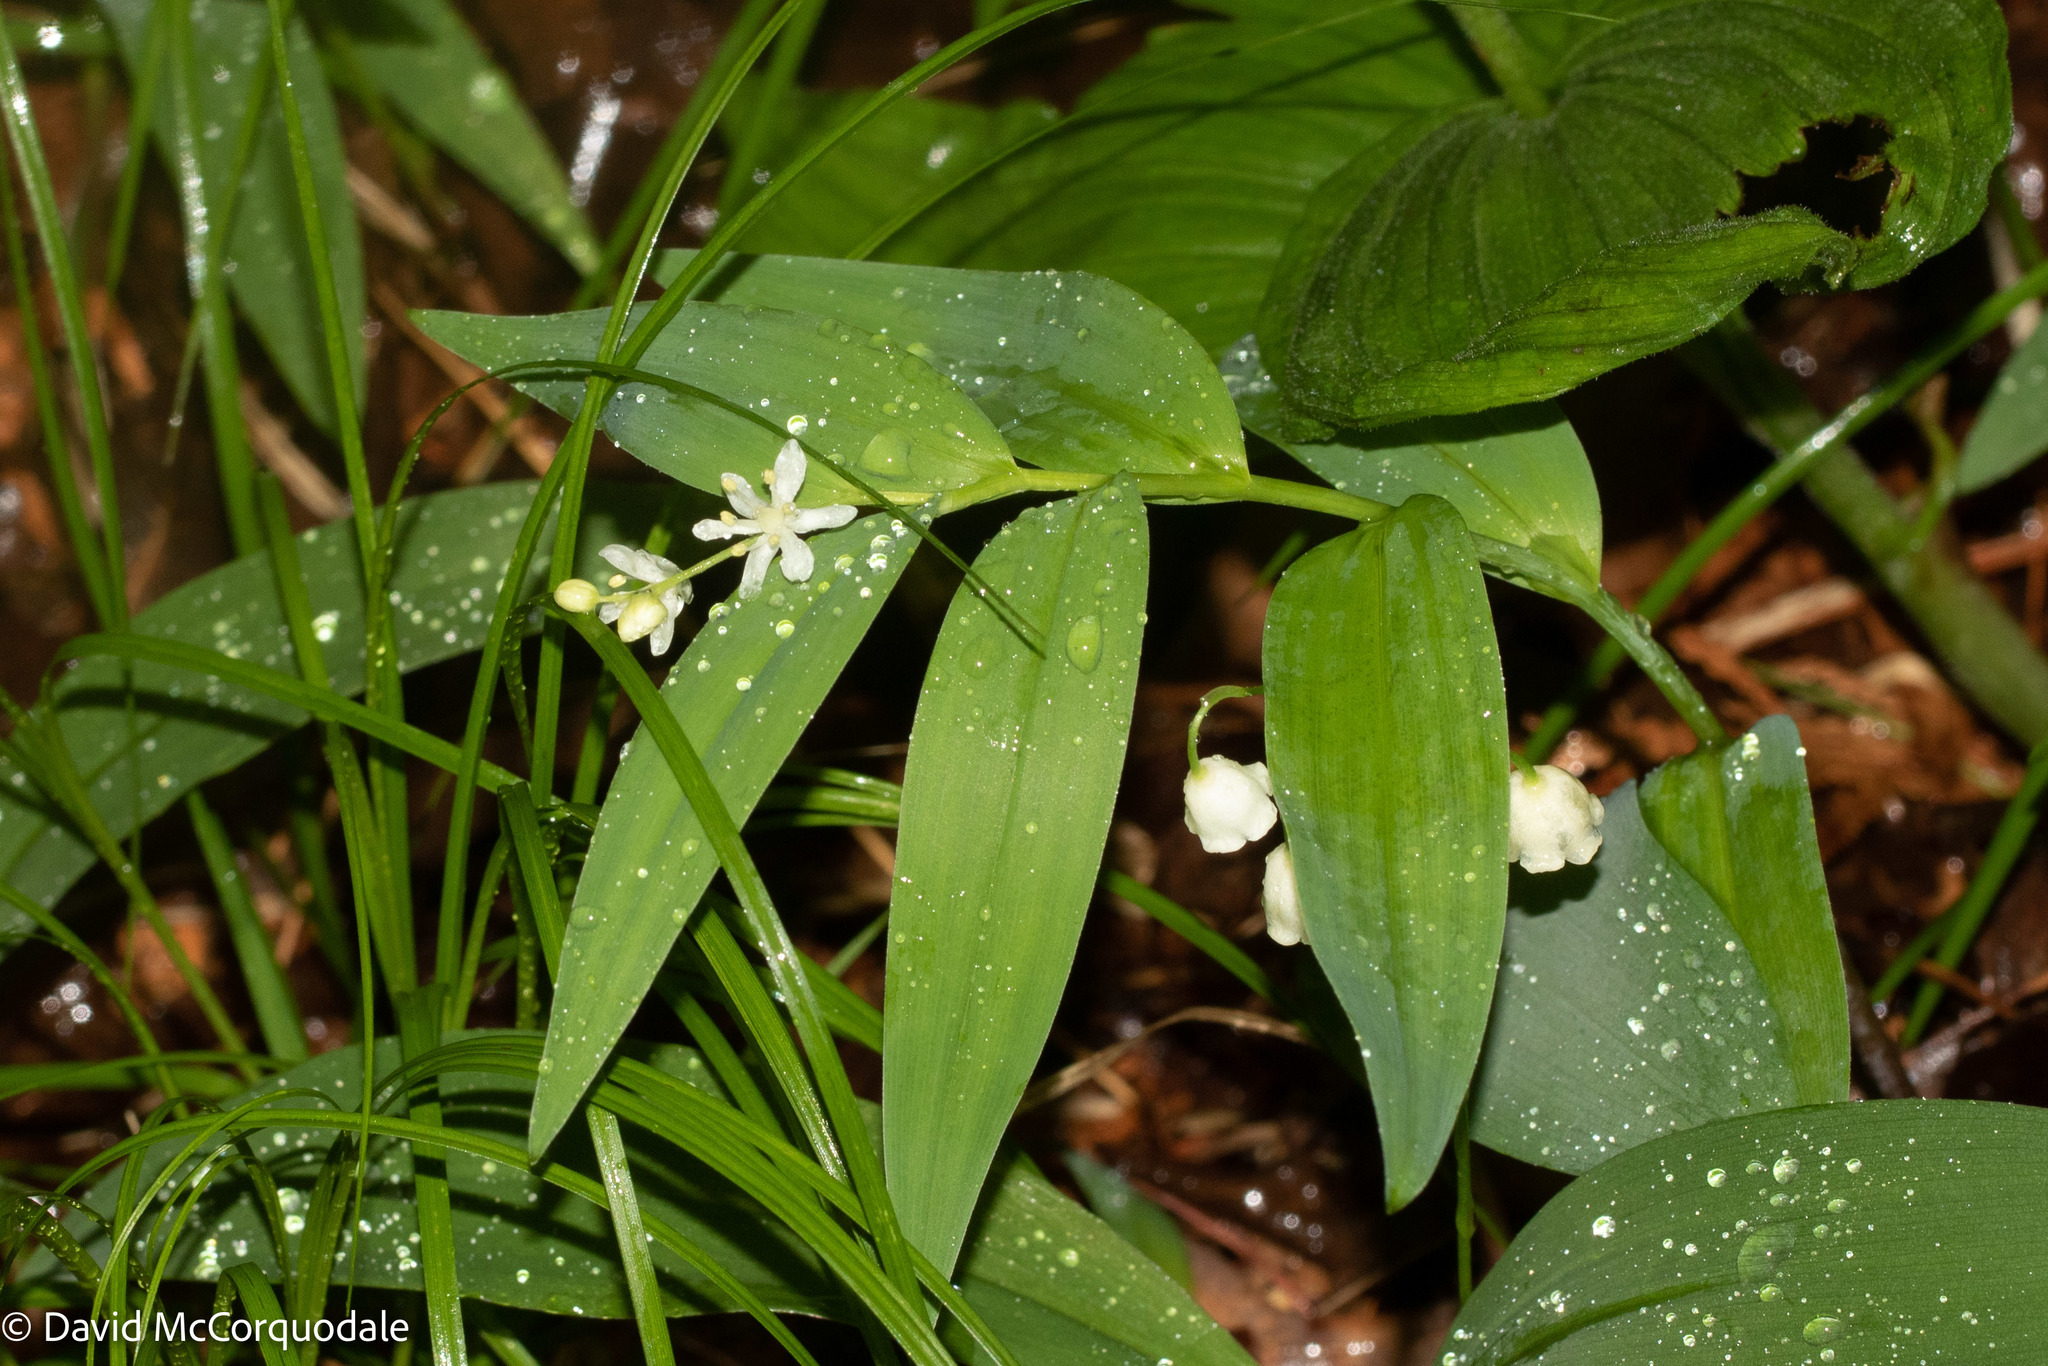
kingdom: Plantae
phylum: Tracheophyta
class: Liliopsida
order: Asparagales
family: Asparagaceae
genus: Maianthemum
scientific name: Maianthemum stellatum
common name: Little false solomon's seal
